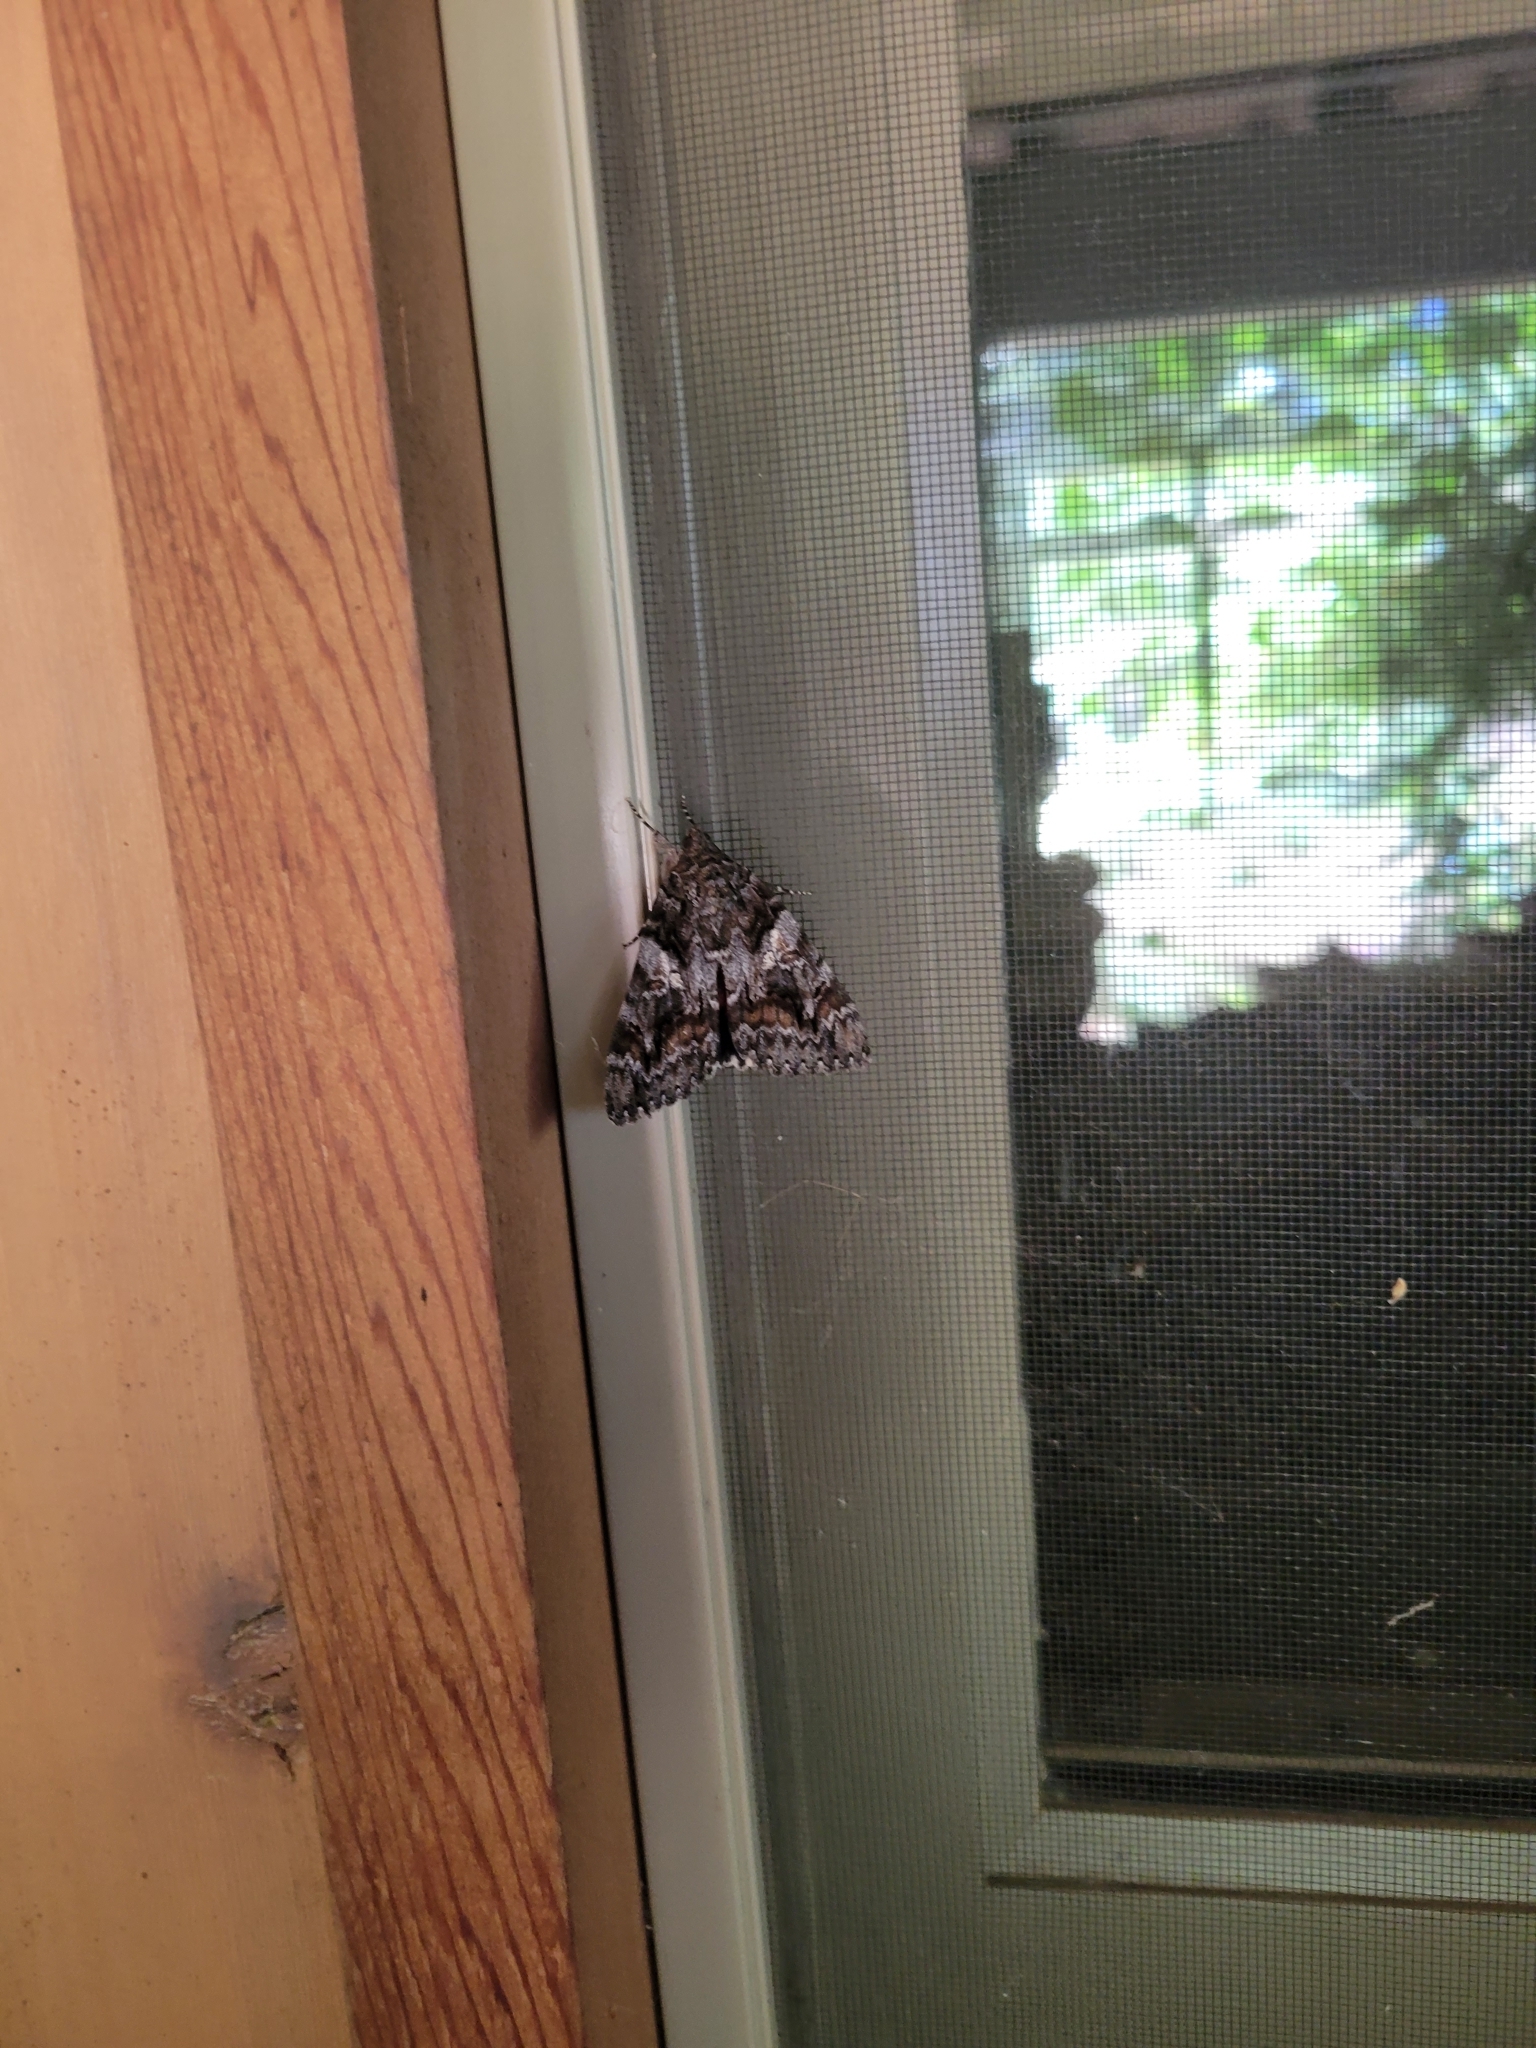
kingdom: Animalia
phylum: Arthropoda
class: Insecta
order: Lepidoptera
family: Erebidae
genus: Catocala
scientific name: Catocala aholibah
